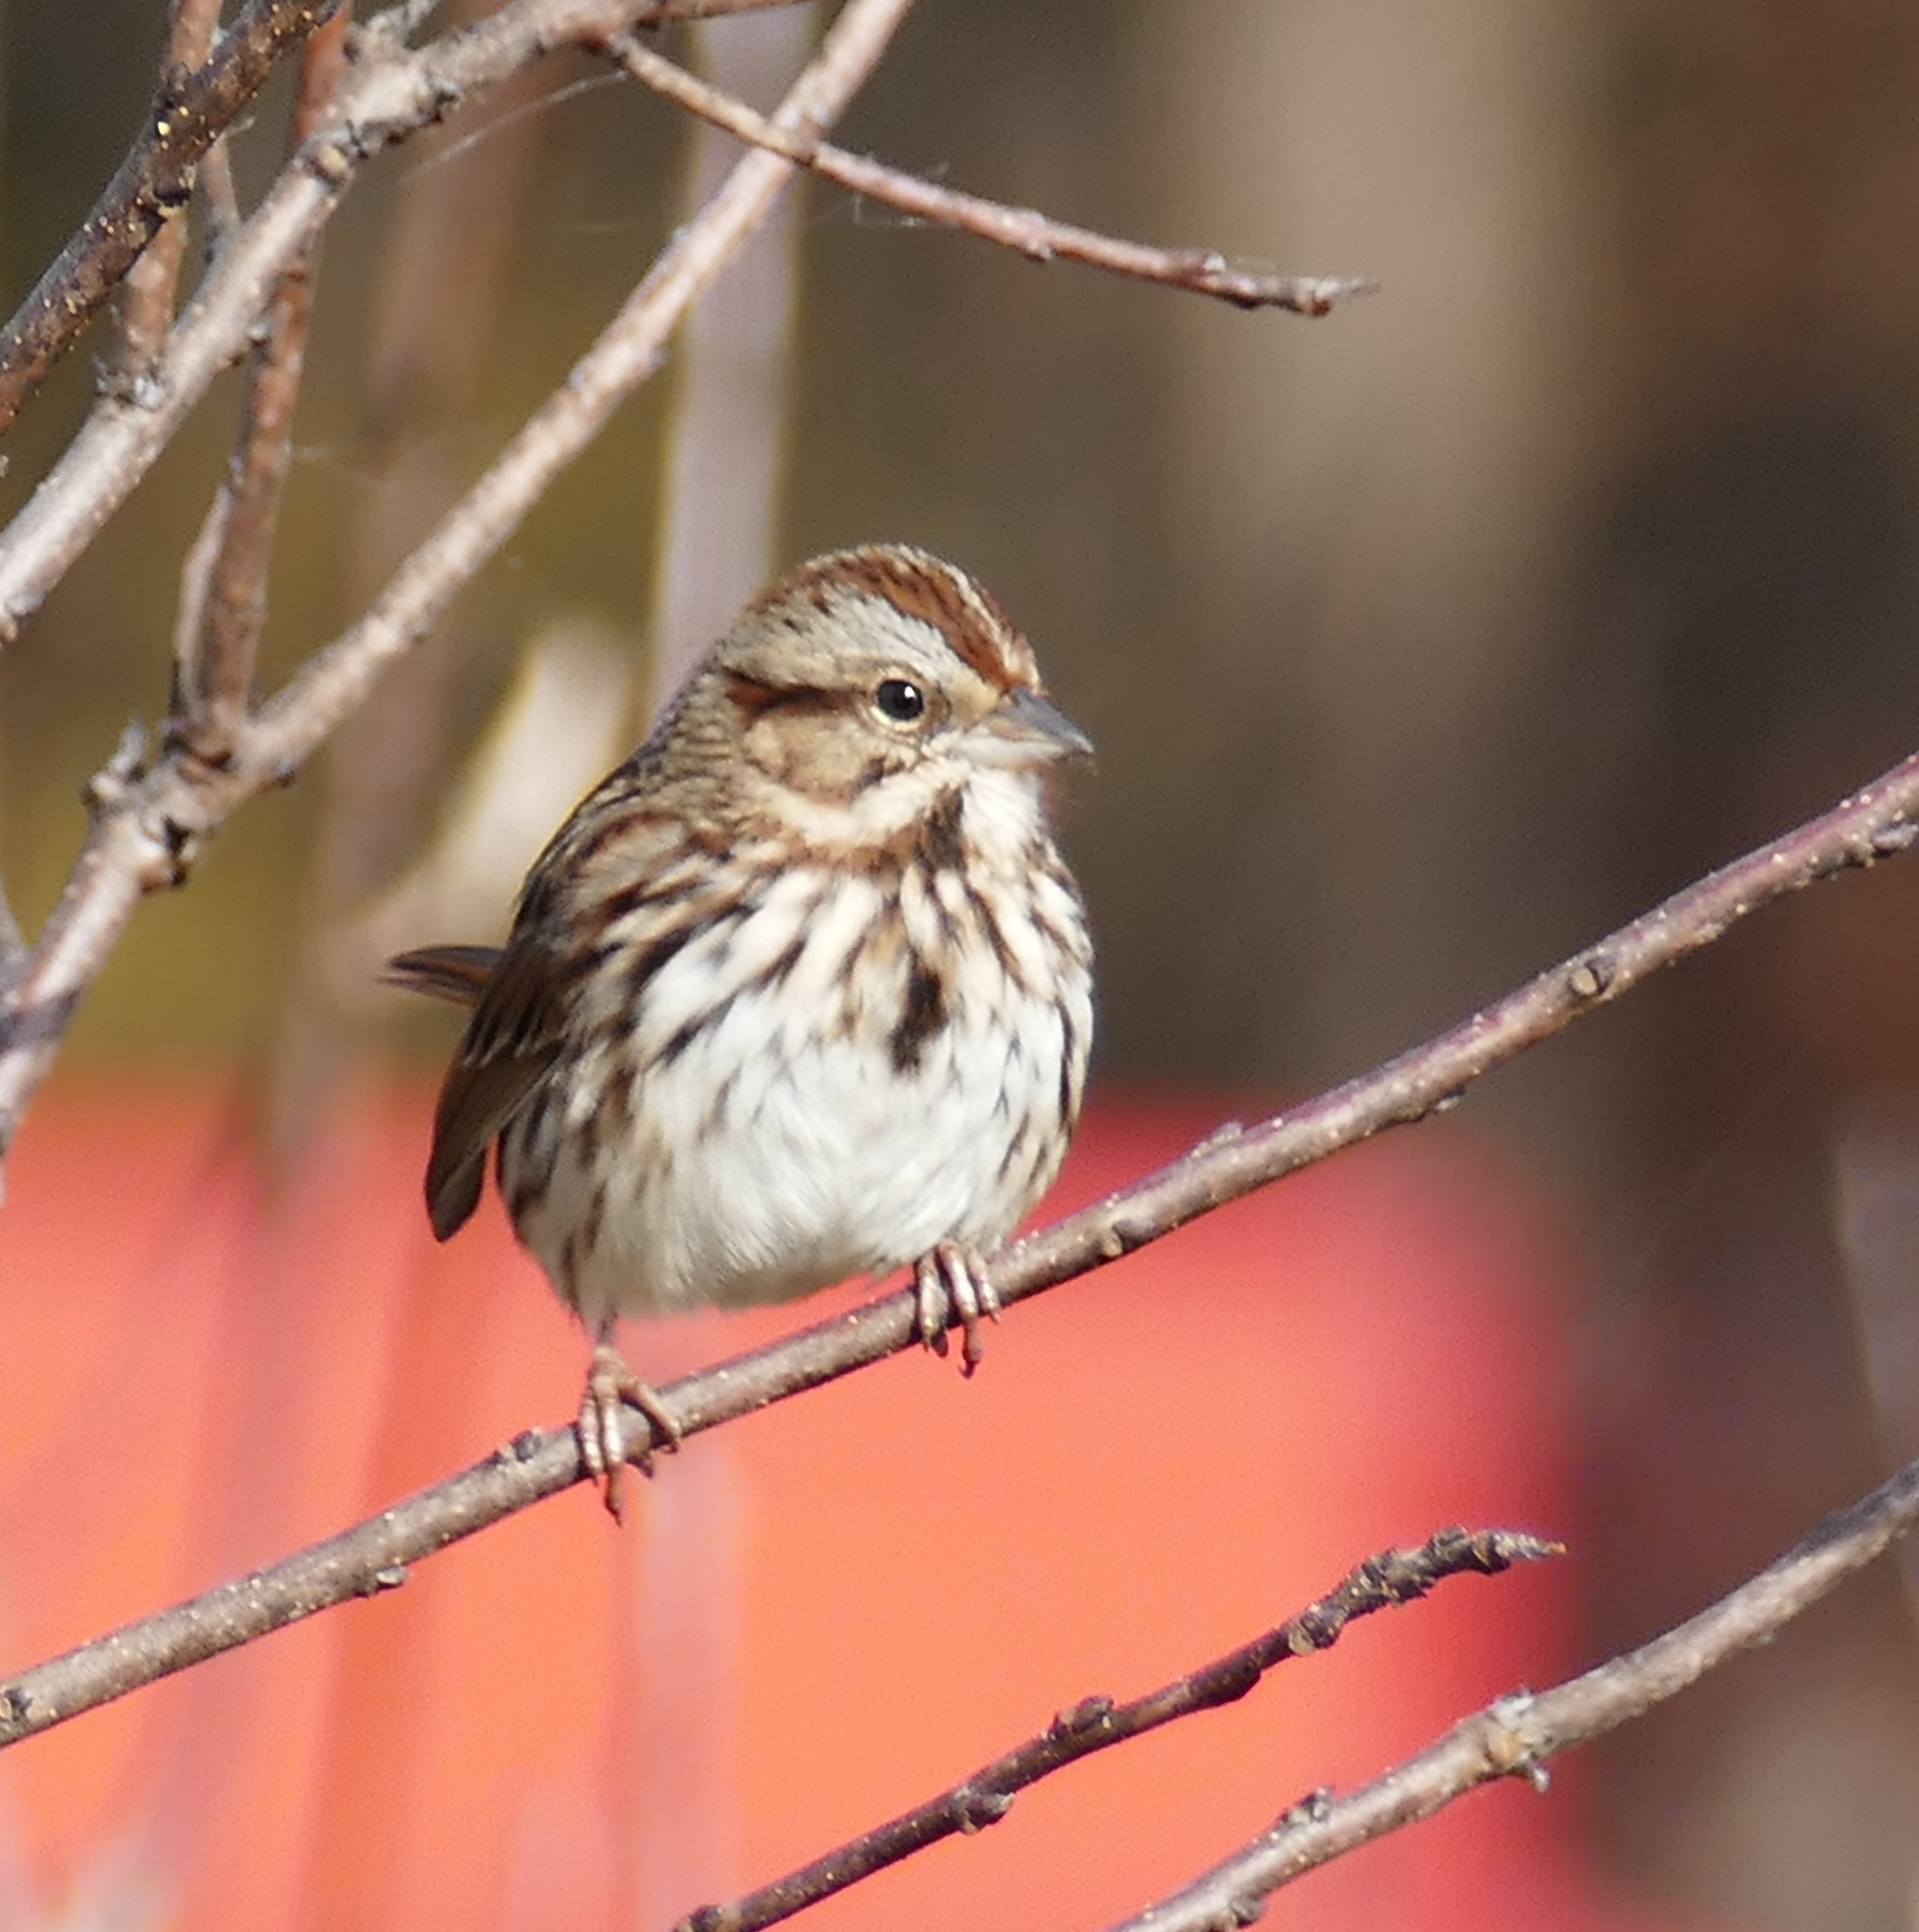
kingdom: Animalia
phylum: Chordata
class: Aves
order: Passeriformes
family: Passerellidae
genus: Melospiza
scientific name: Melospiza melodia
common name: Song sparrow
